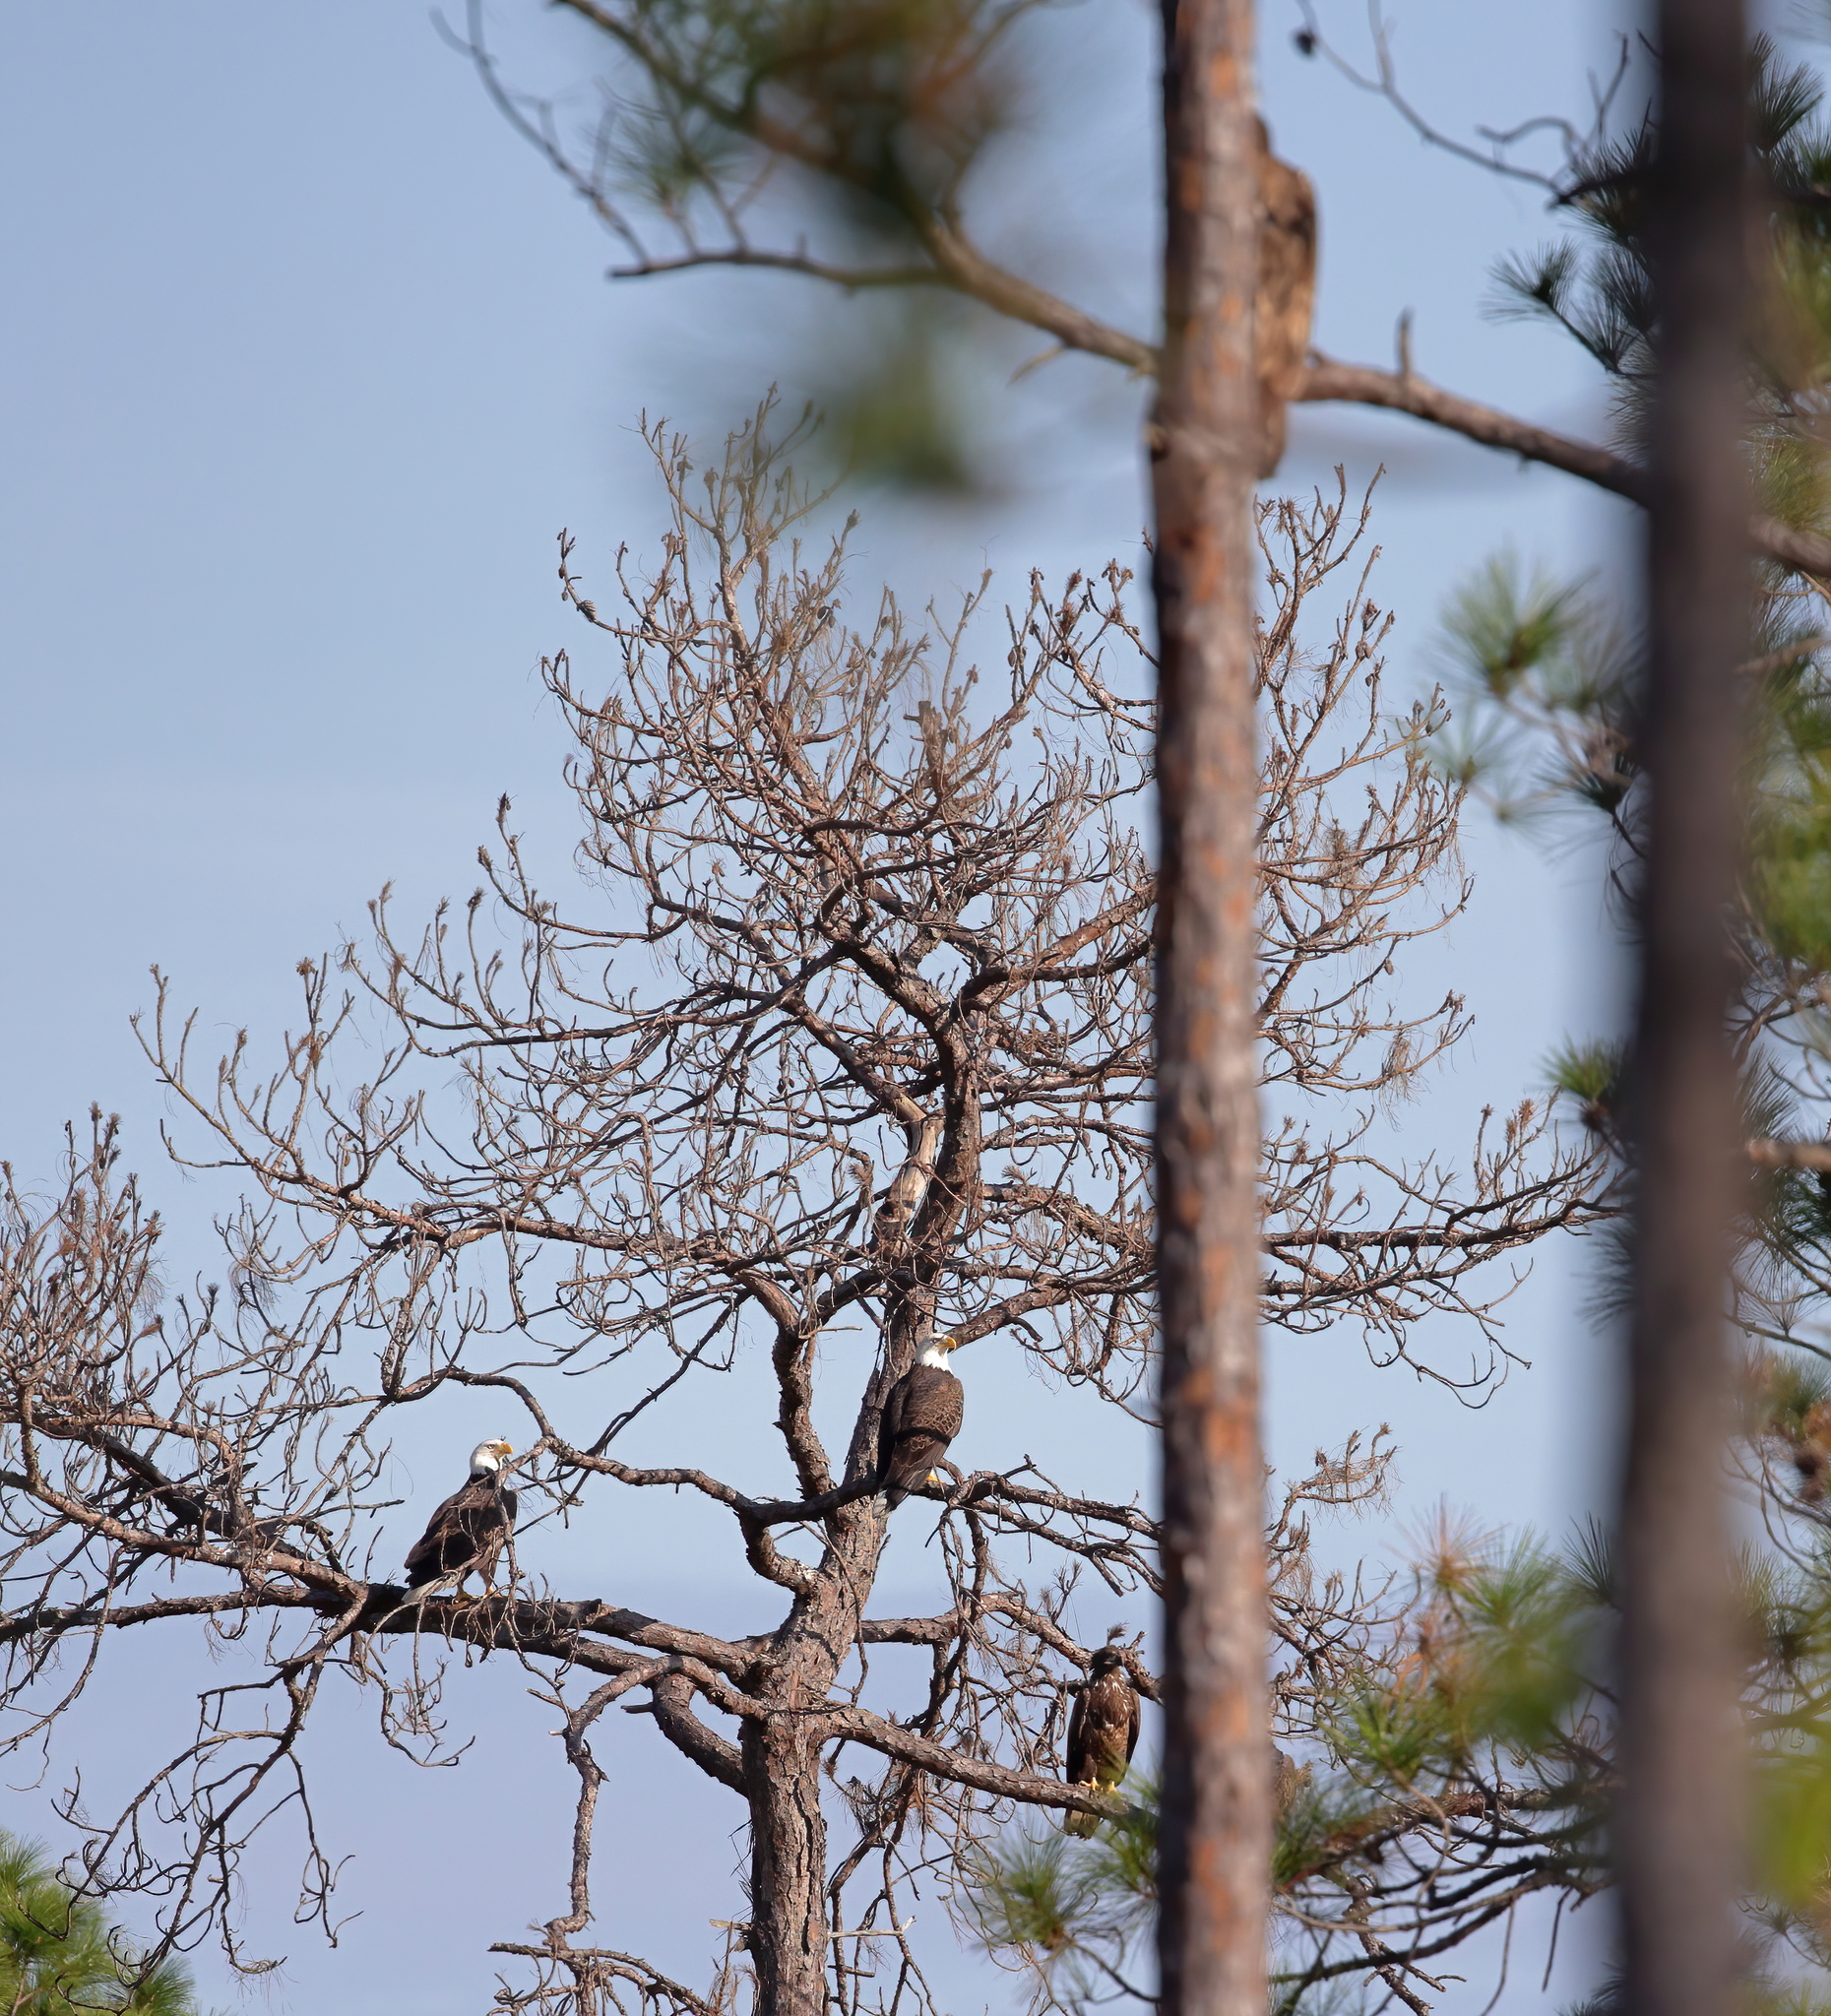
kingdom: Animalia
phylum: Chordata
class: Aves
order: Accipitriformes
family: Accipitridae
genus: Haliaeetus
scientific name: Haliaeetus leucocephalus
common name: Bald eagle
